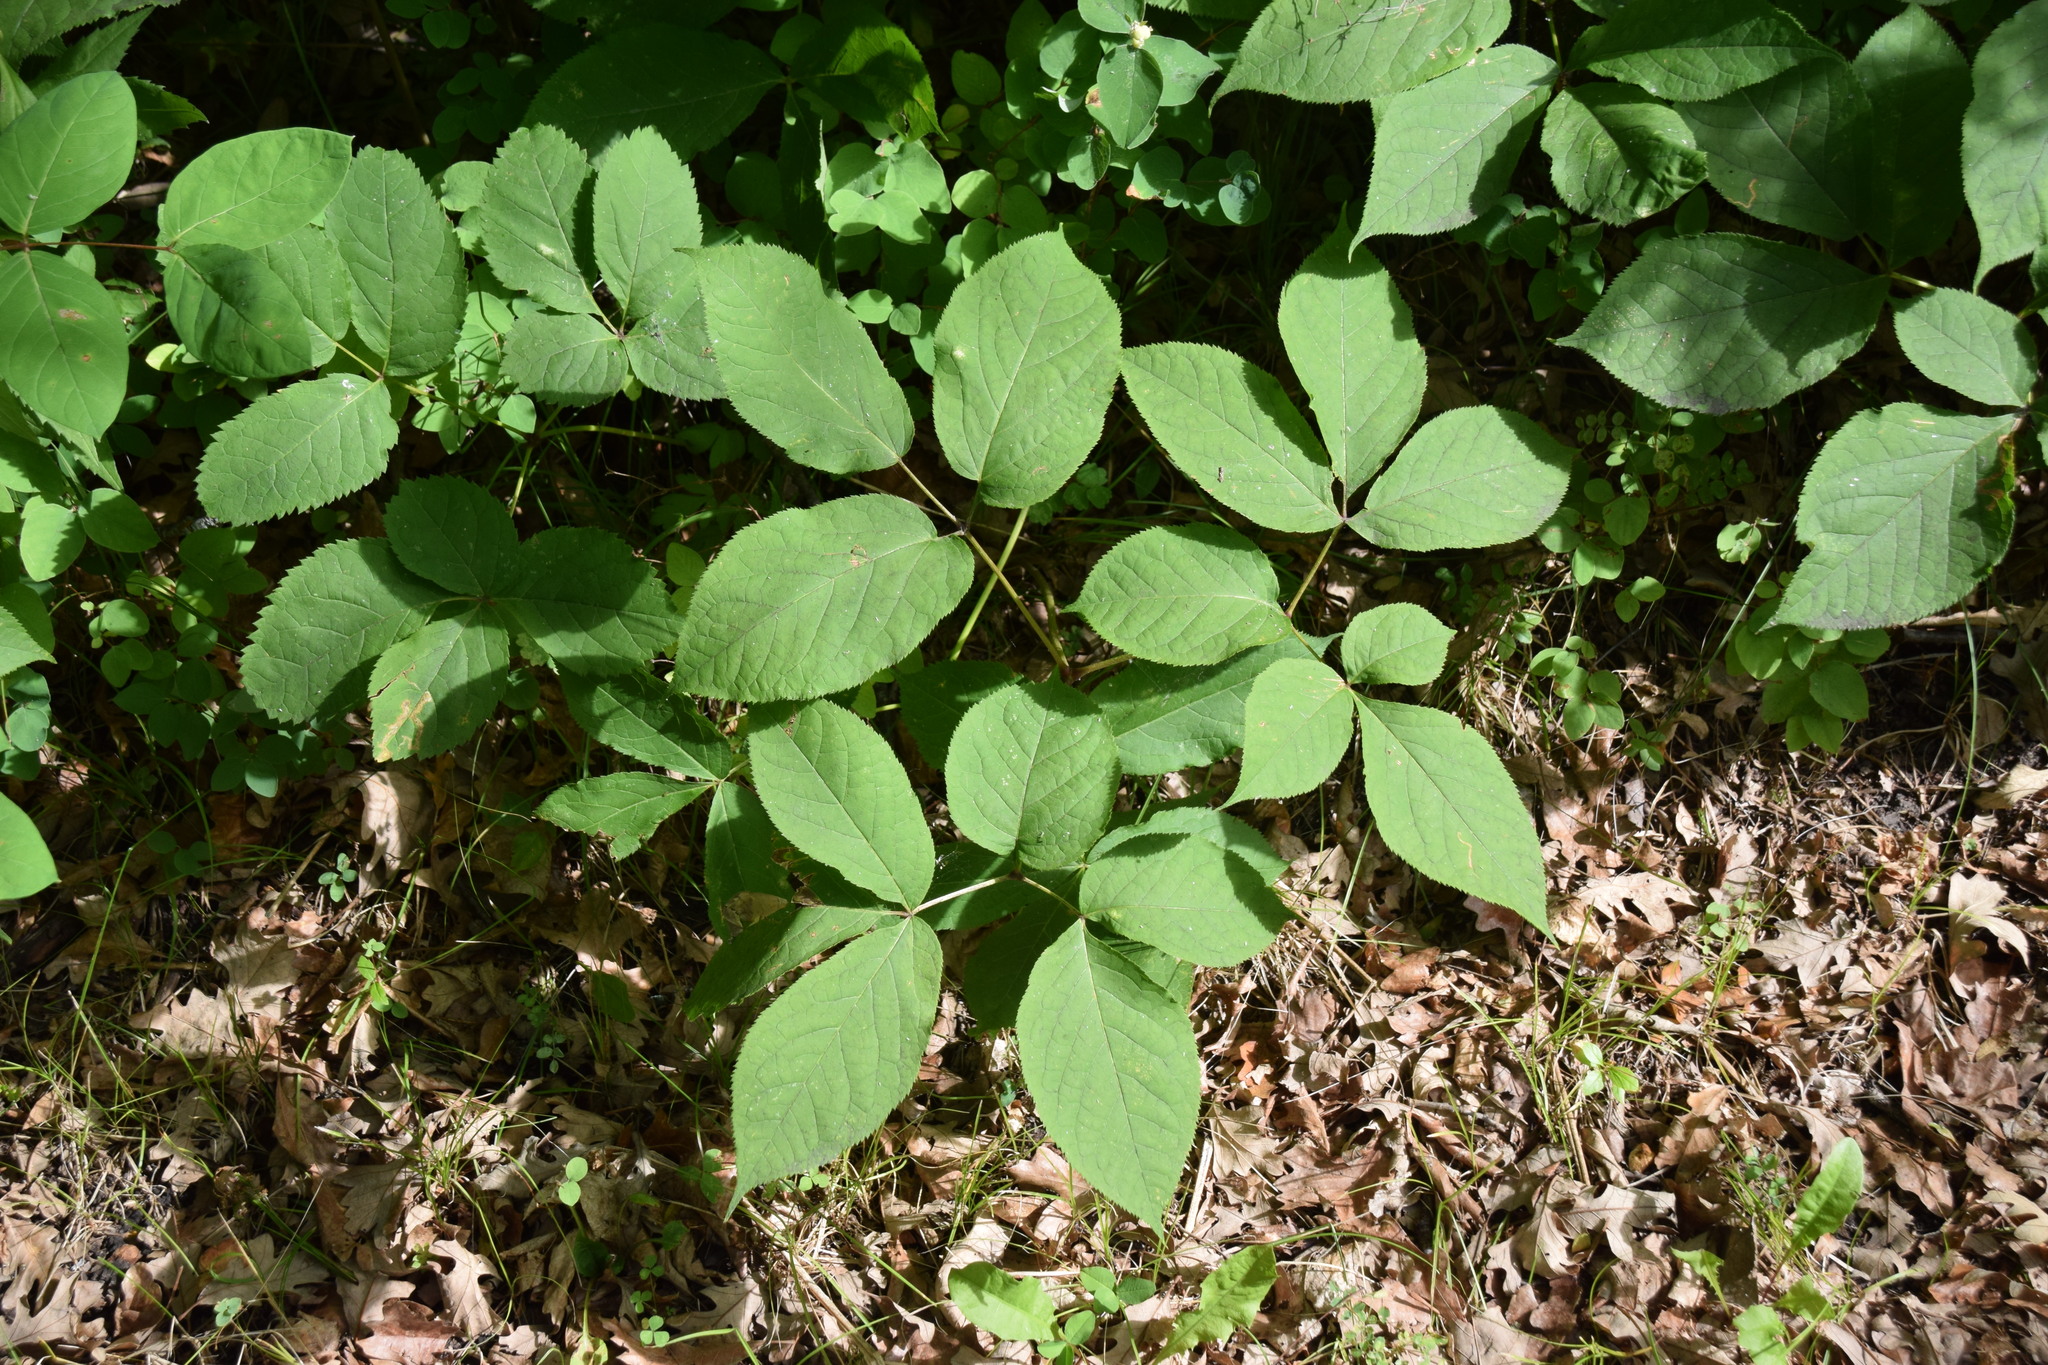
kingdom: Plantae
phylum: Tracheophyta
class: Magnoliopsida
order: Apiales
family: Araliaceae
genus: Aralia
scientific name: Aralia nudicaulis
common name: Wild sarsaparilla
